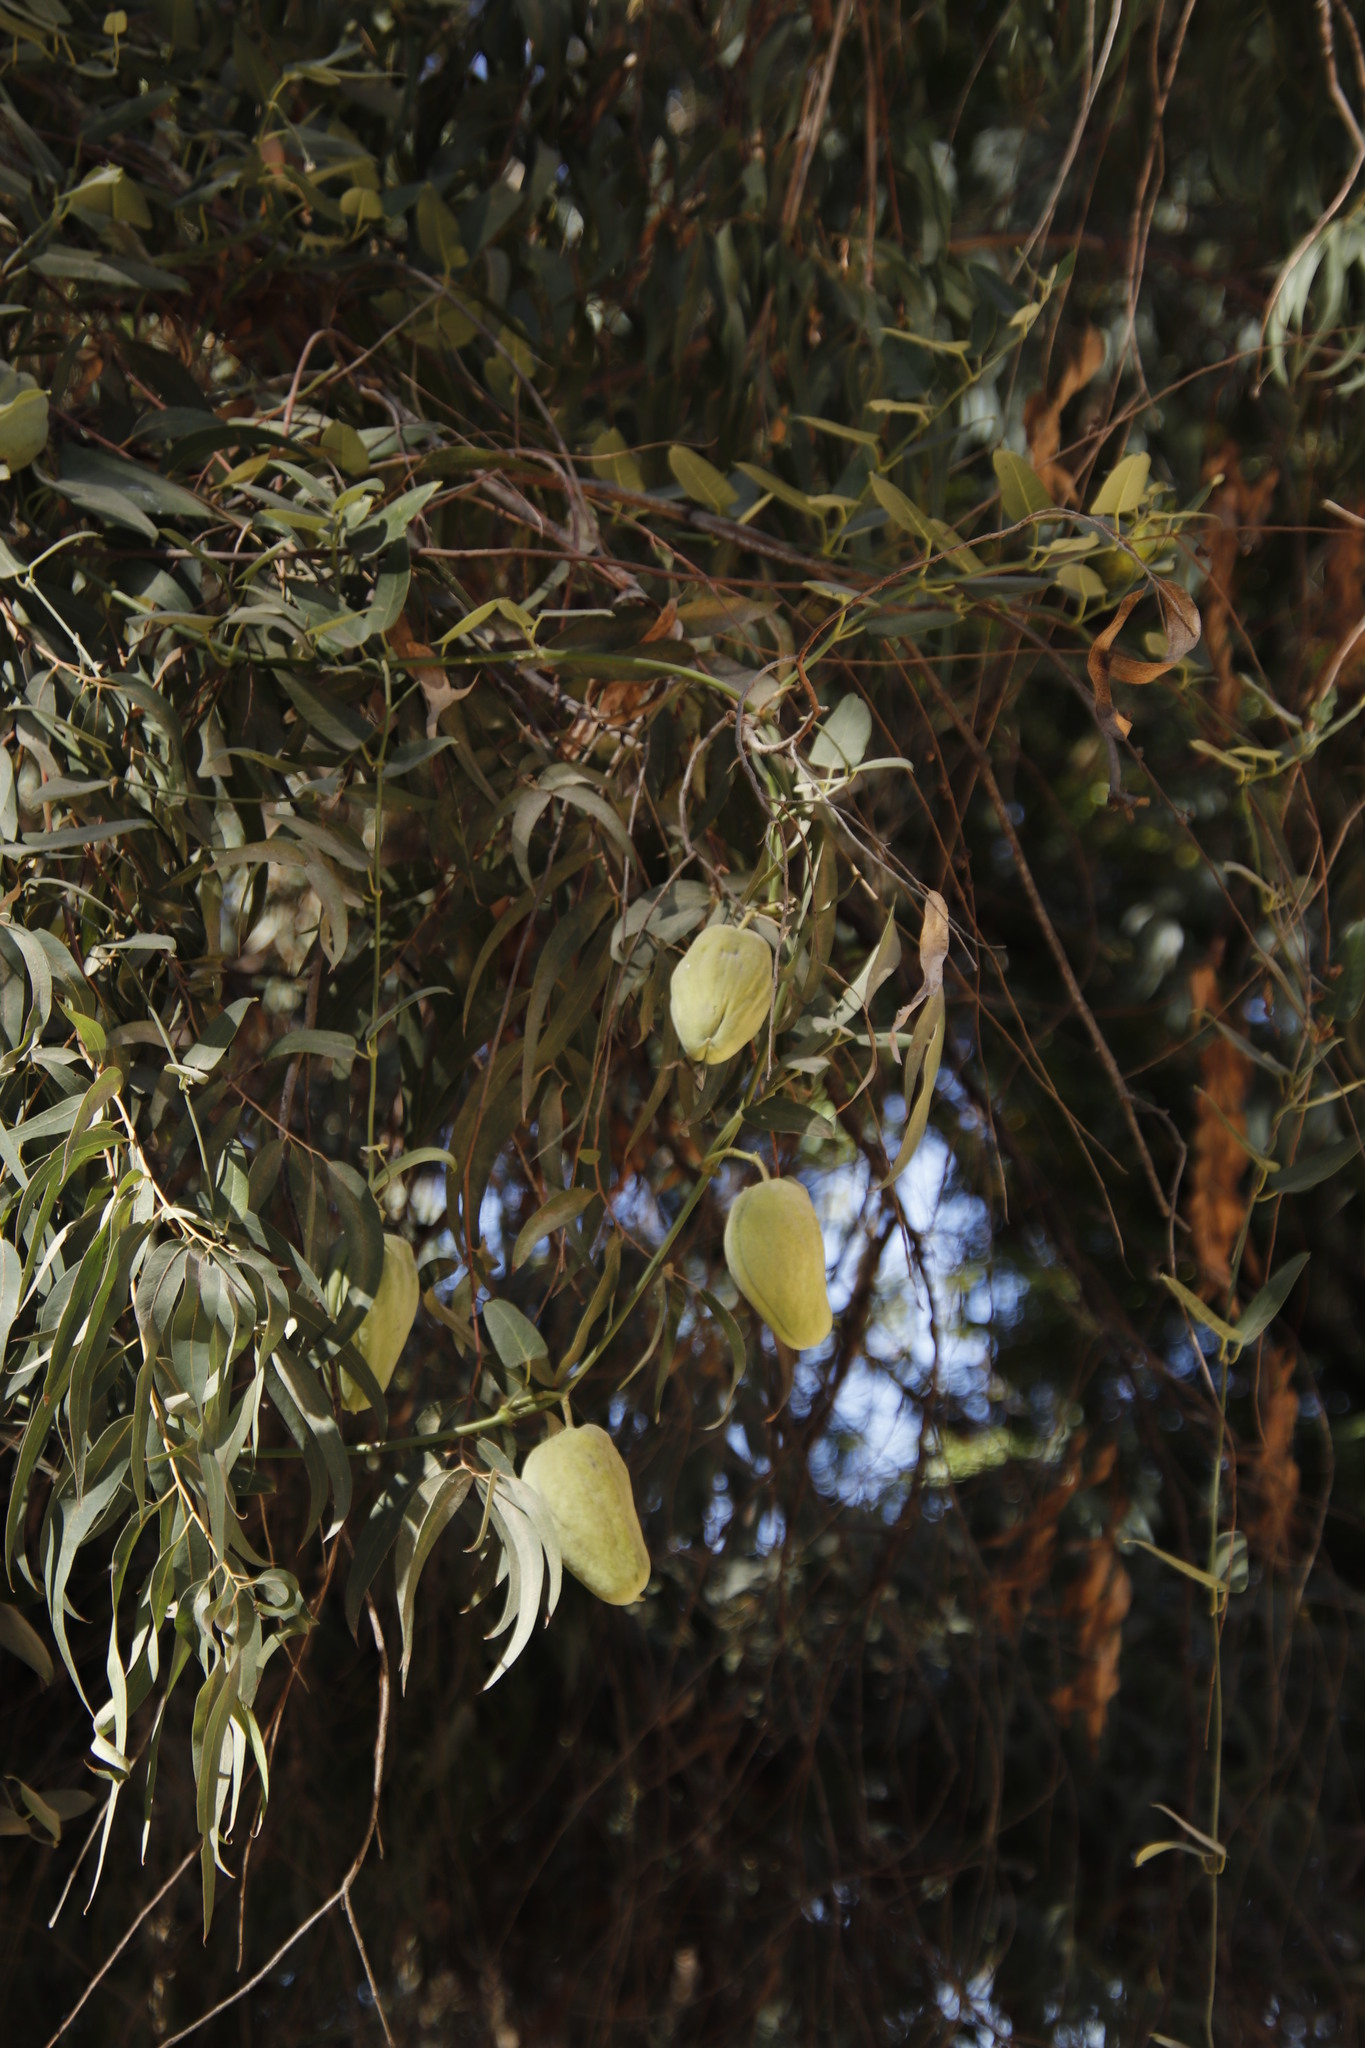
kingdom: Plantae
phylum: Tracheophyta
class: Magnoliopsida
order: Gentianales
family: Apocynaceae
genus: Araujia
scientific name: Araujia sericifera
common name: White bladderflower
